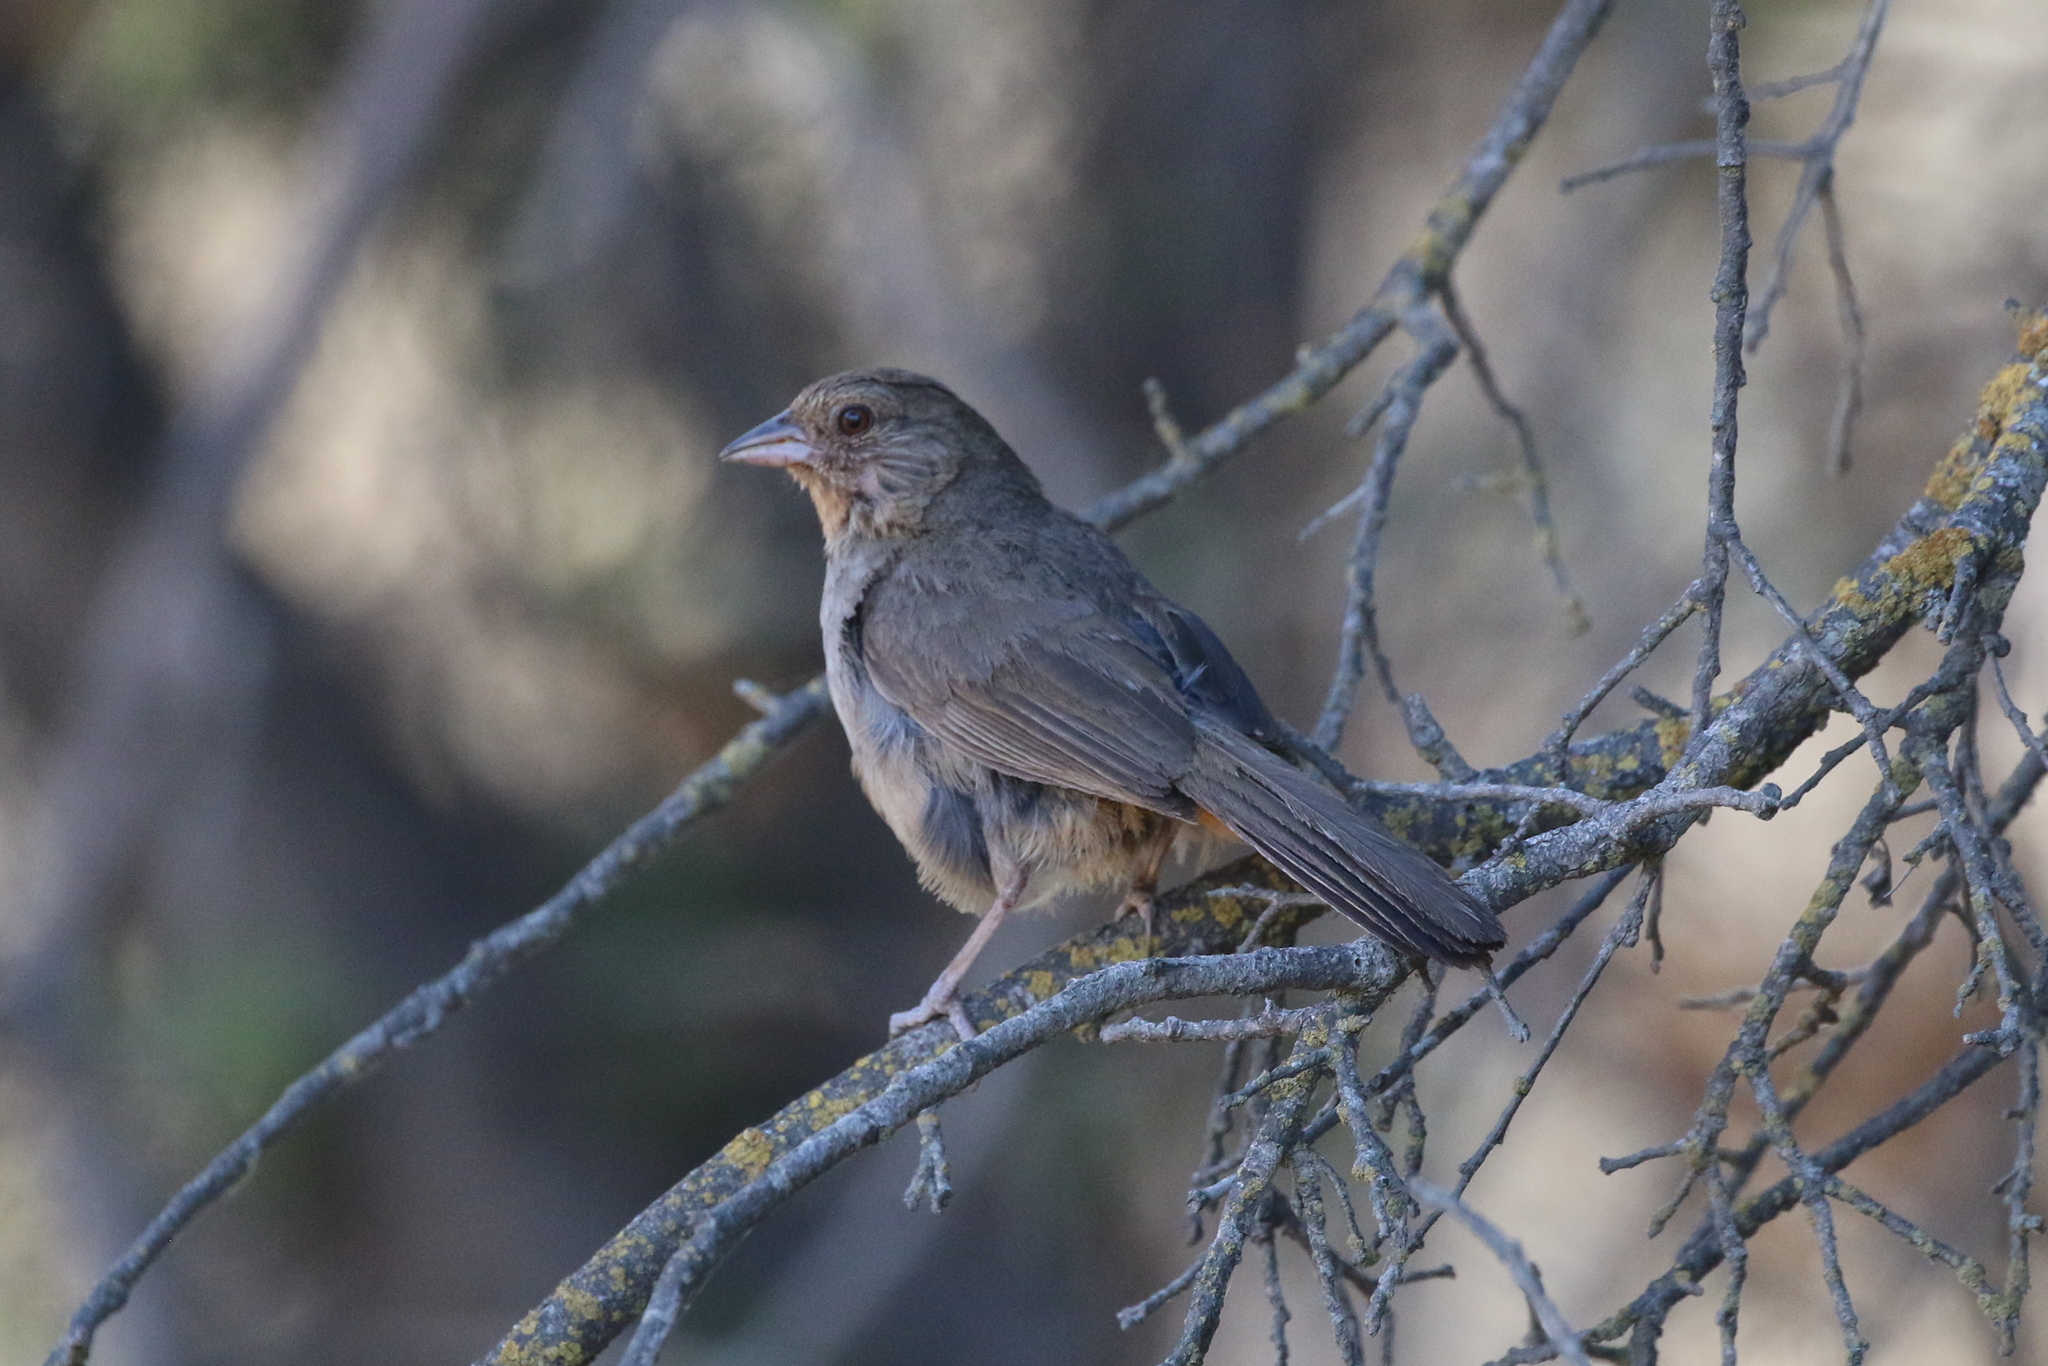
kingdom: Animalia
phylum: Chordata
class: Aves
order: Passeriformes
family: Passerellidae
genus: Melozone
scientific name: Melozone crissalis
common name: California towhee
